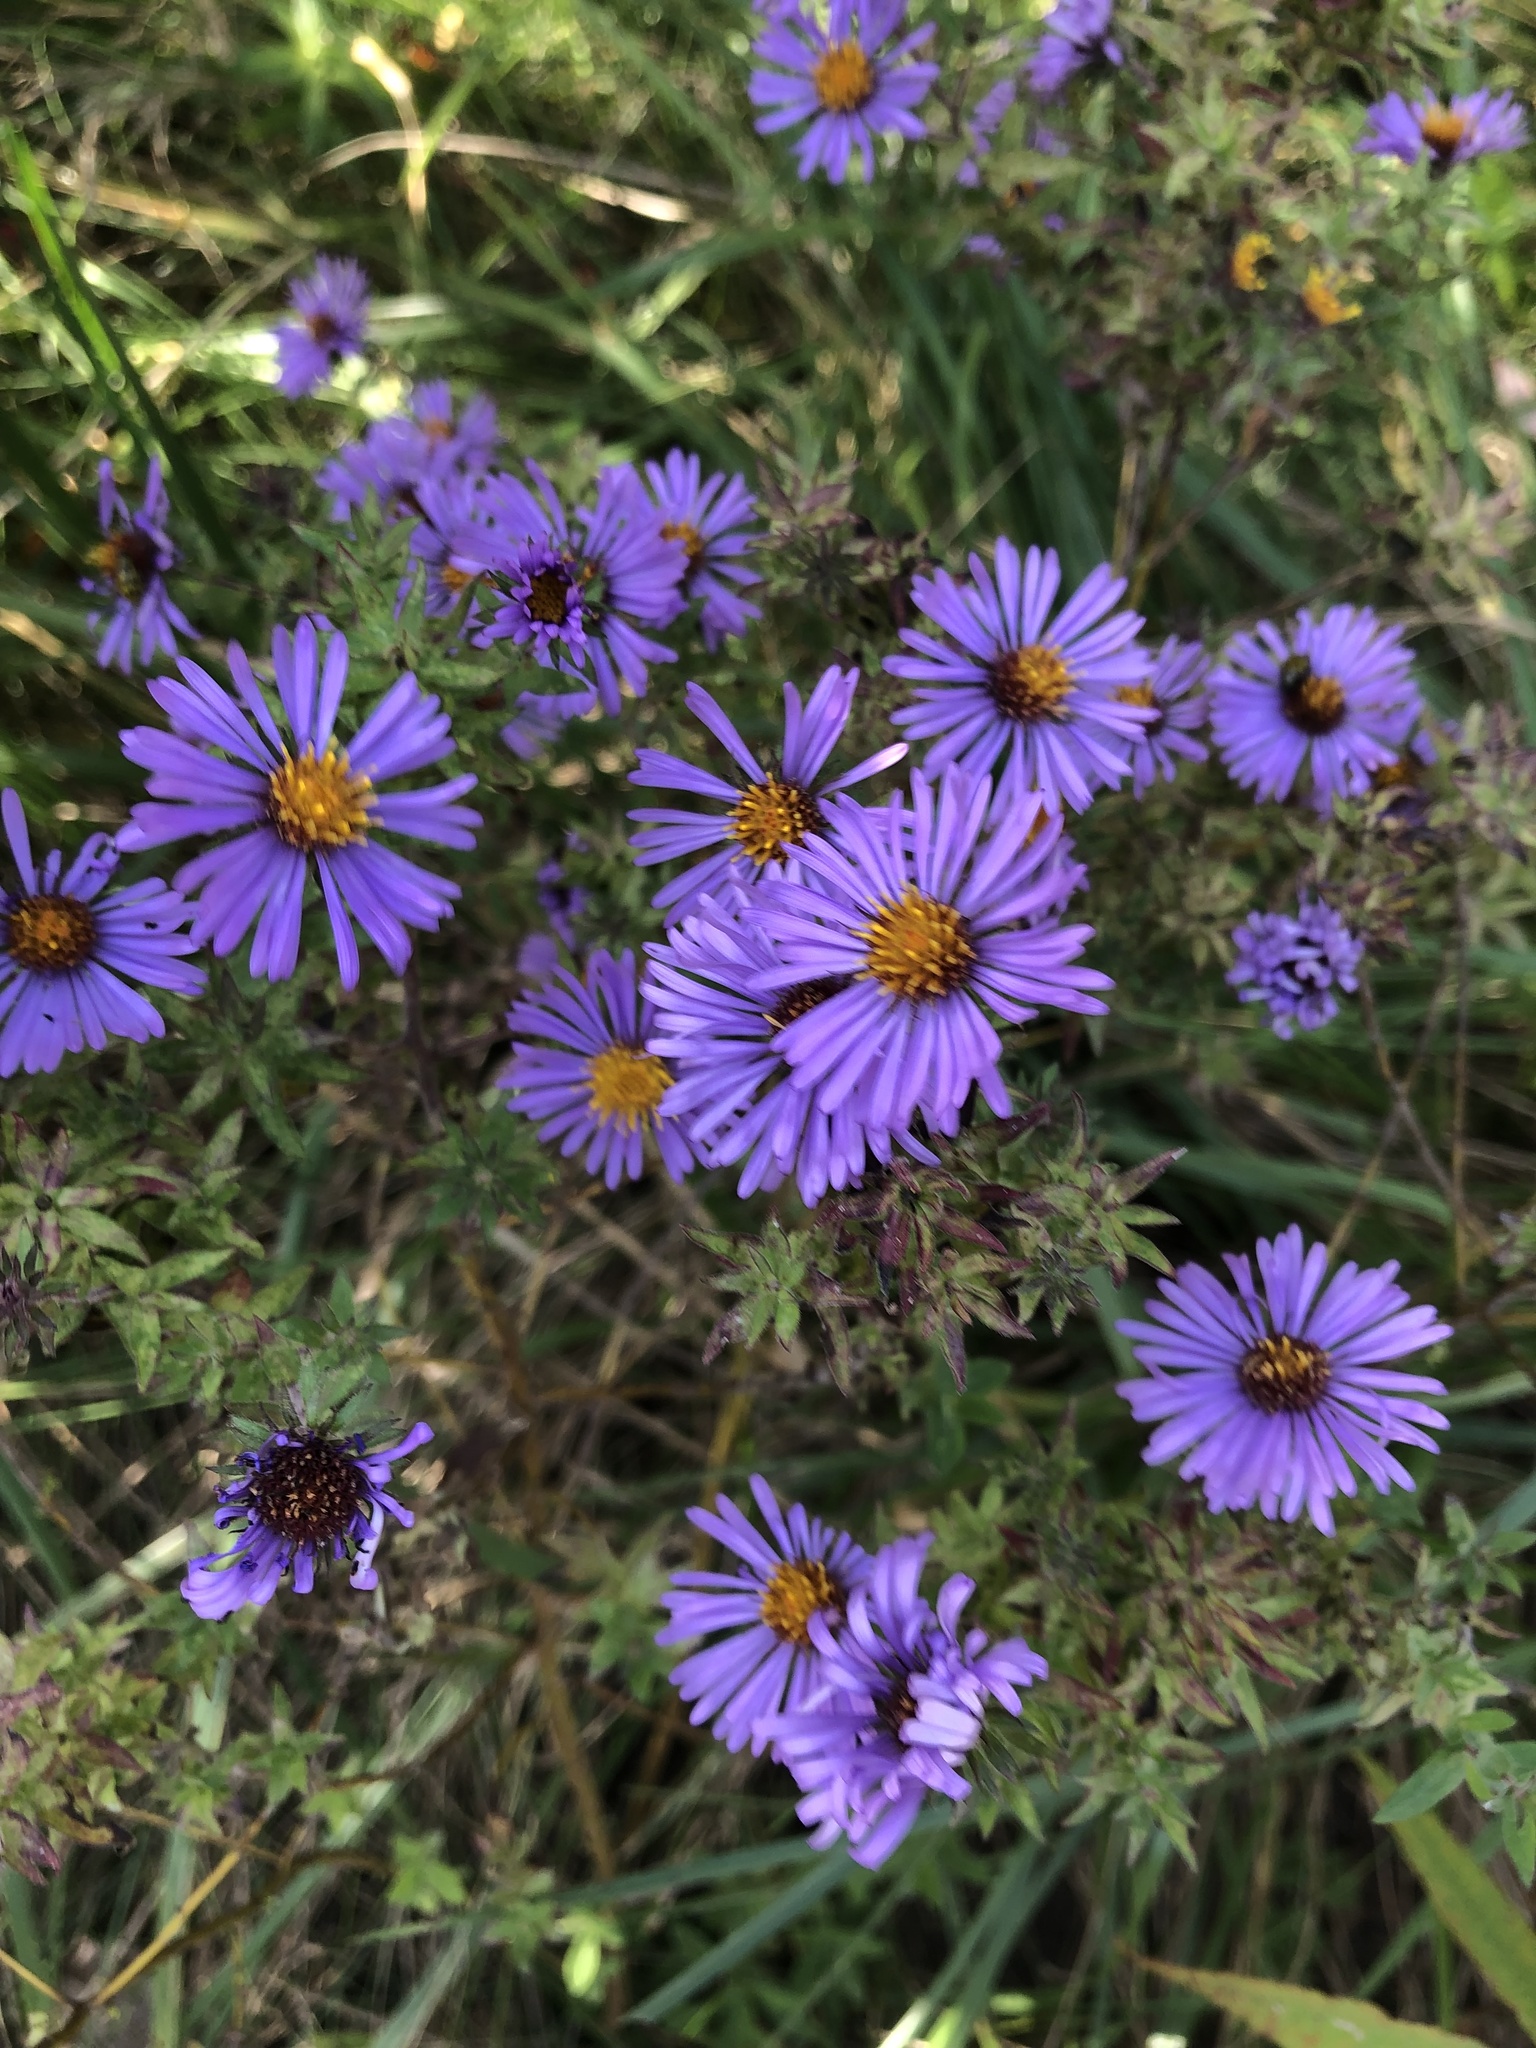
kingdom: Plantae
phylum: Tracheophyta
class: Magnoliopsida
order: Asterales
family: Asteraceae
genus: Symphyotrichum
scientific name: Symphyotrichum novae-angliae
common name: Michaelmas daisy
